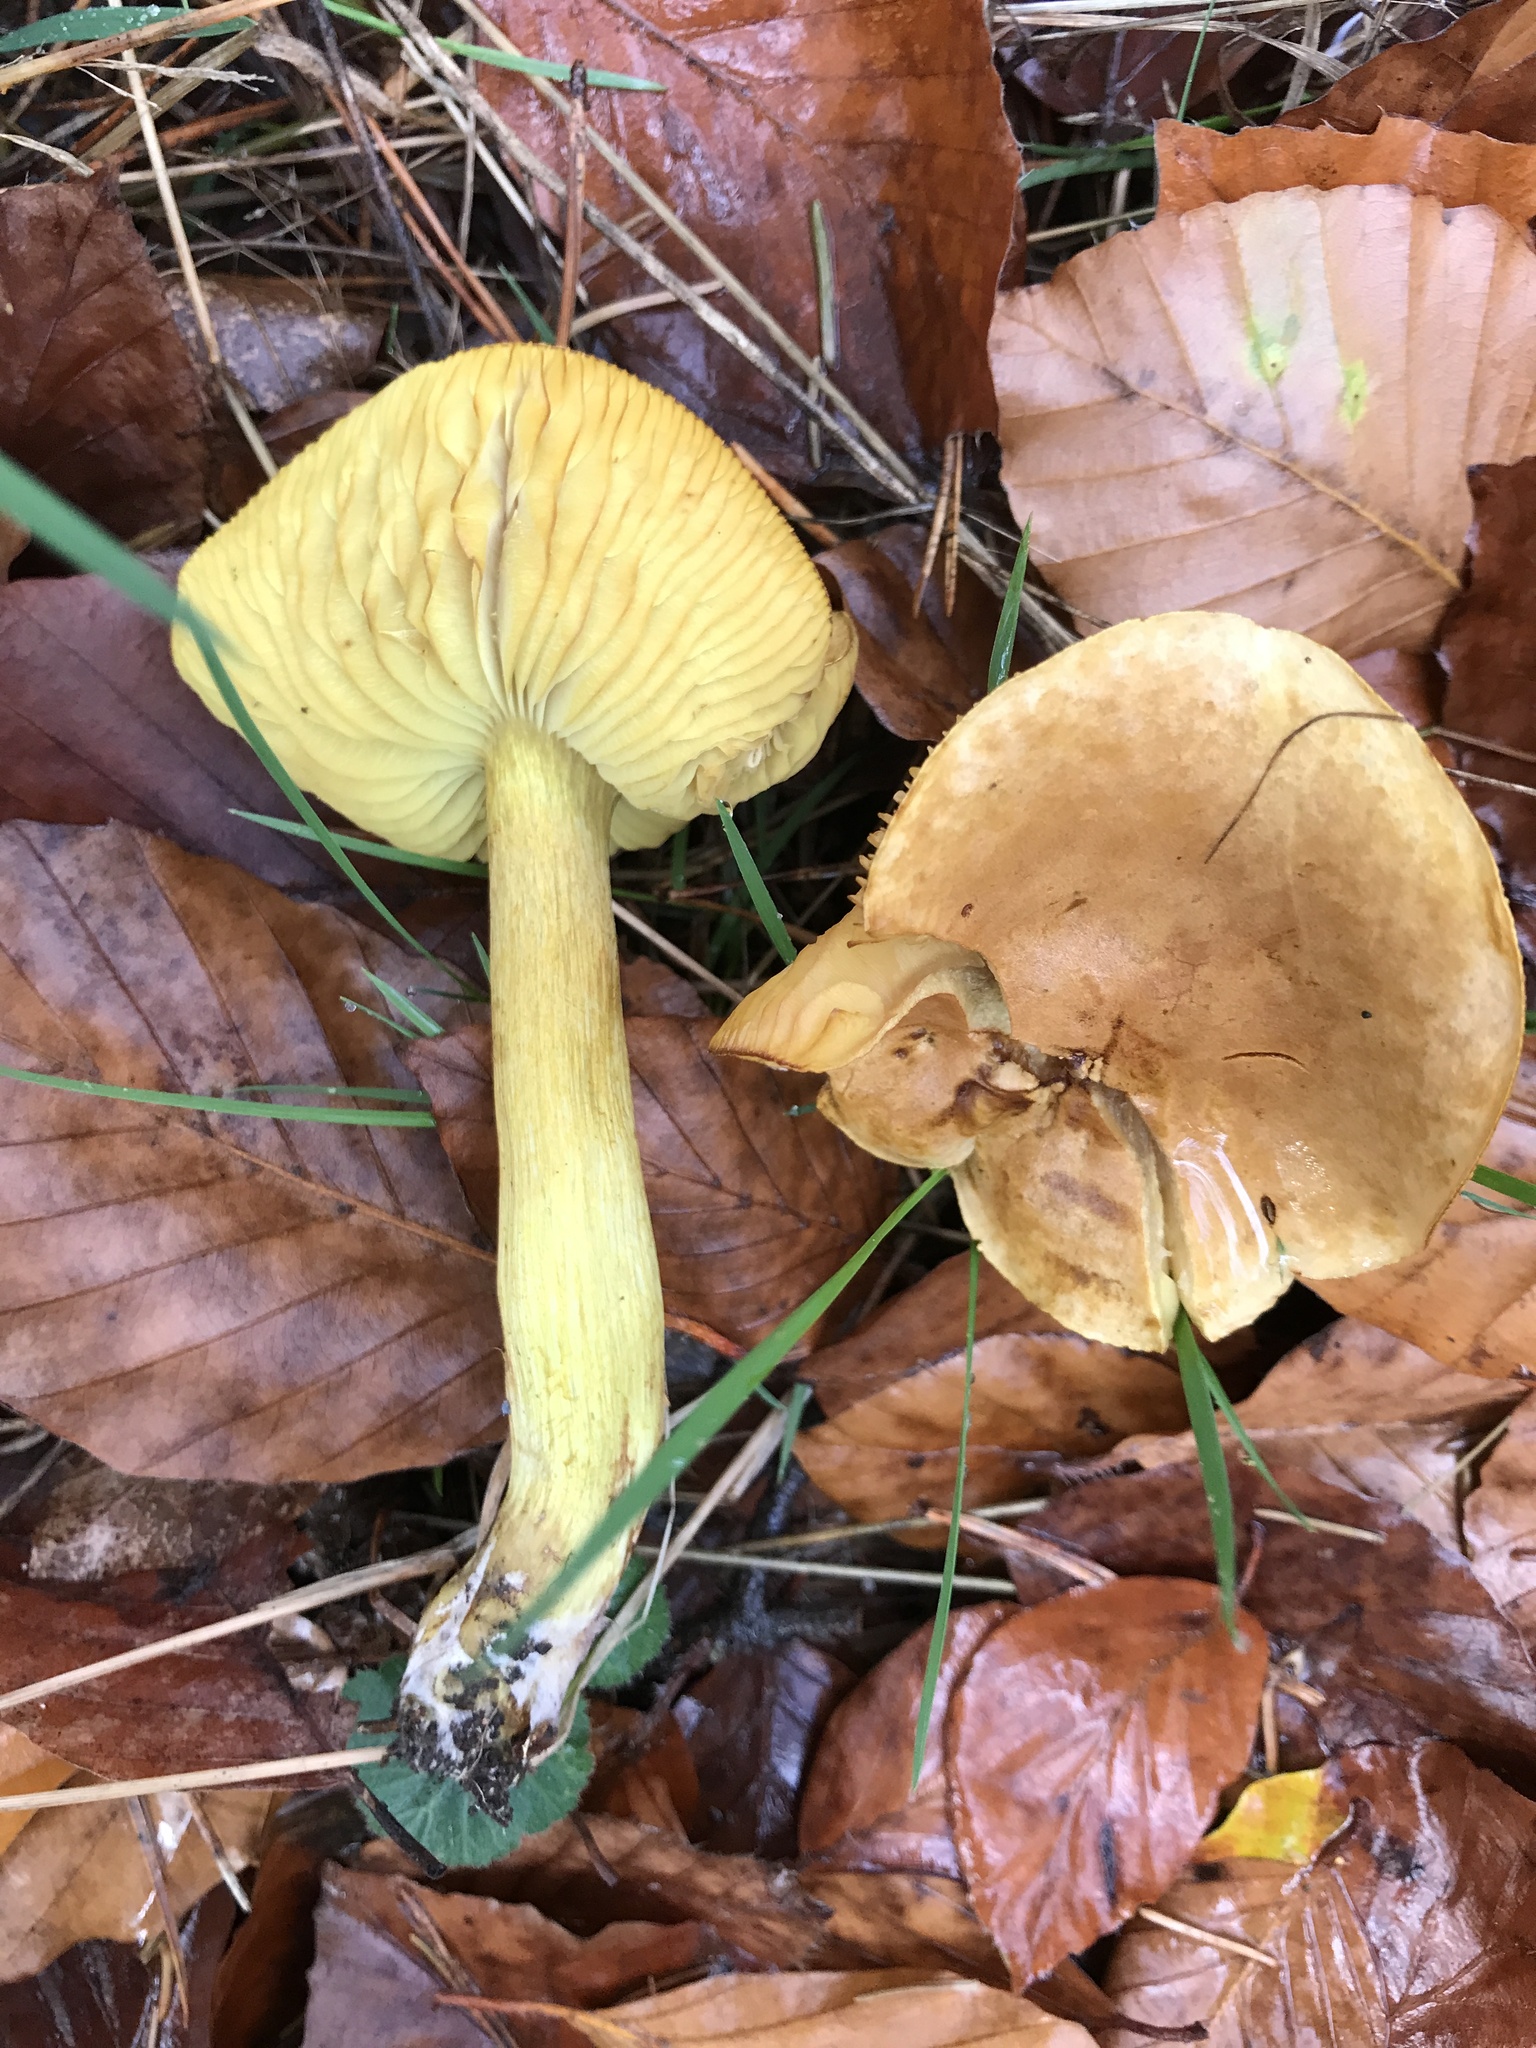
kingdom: Fungi
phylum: Basidiomycota
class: Agaricomycetes
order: Agaricales
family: Tricholomataceae
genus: Tricholoma
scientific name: Tricholoma sulphureum
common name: Stinky knight
